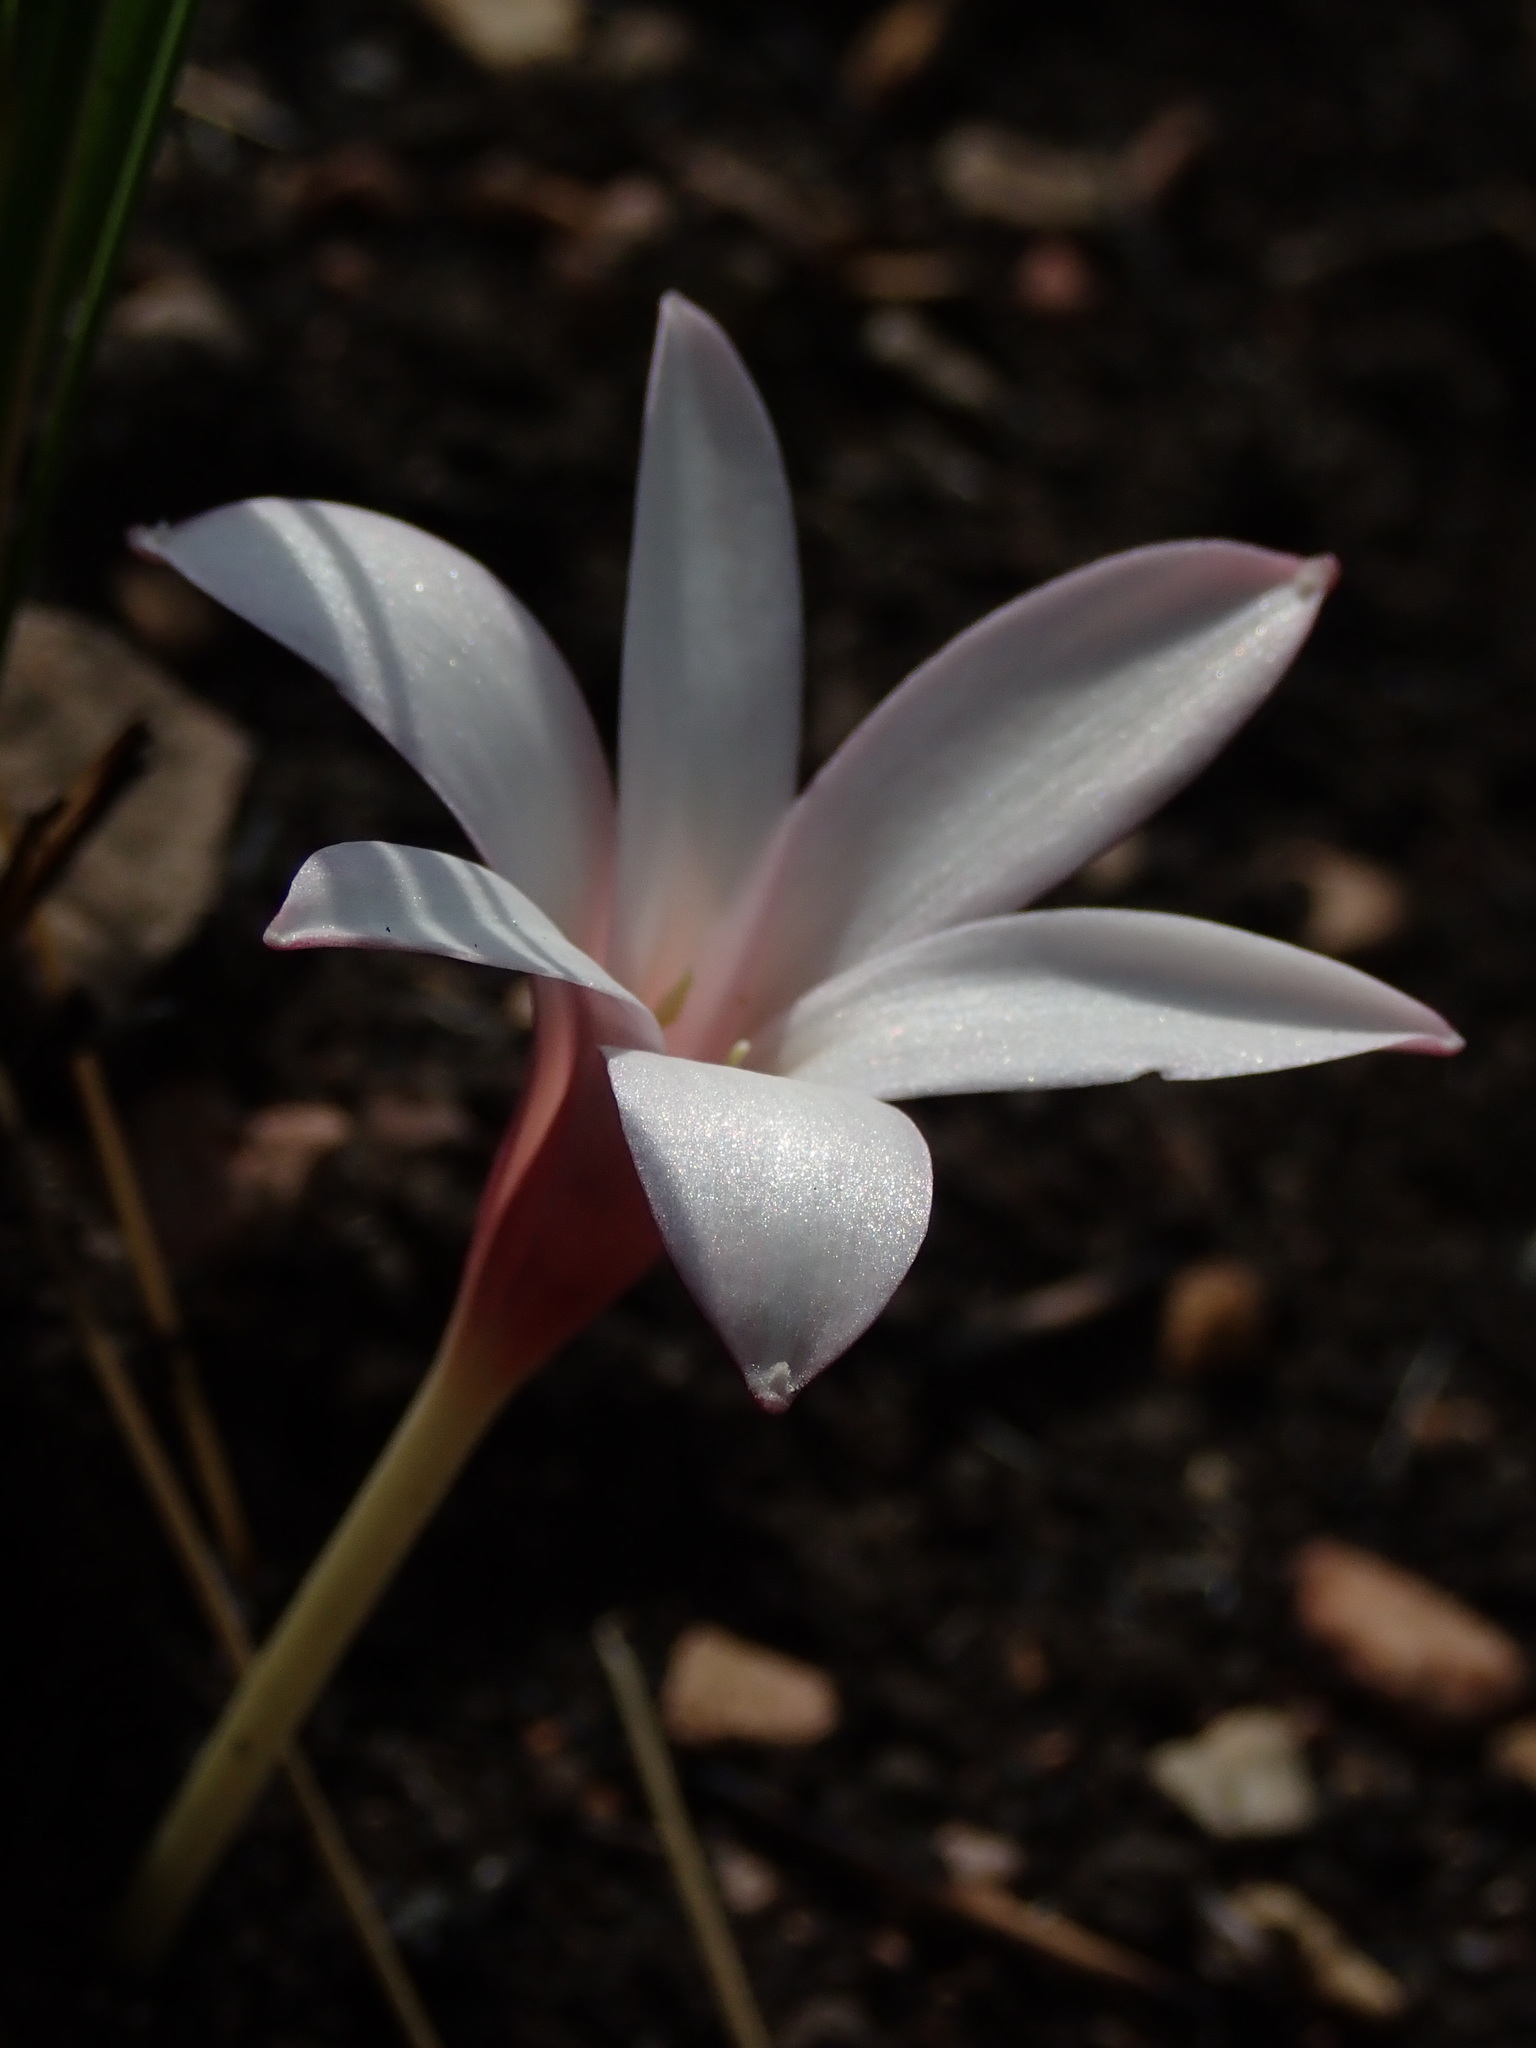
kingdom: Plantae
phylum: Tracheophyta
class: Liliopsida
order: Asparagales
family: Amaryllidaceae
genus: Apodolirion
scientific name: Apodolirion buchananii
